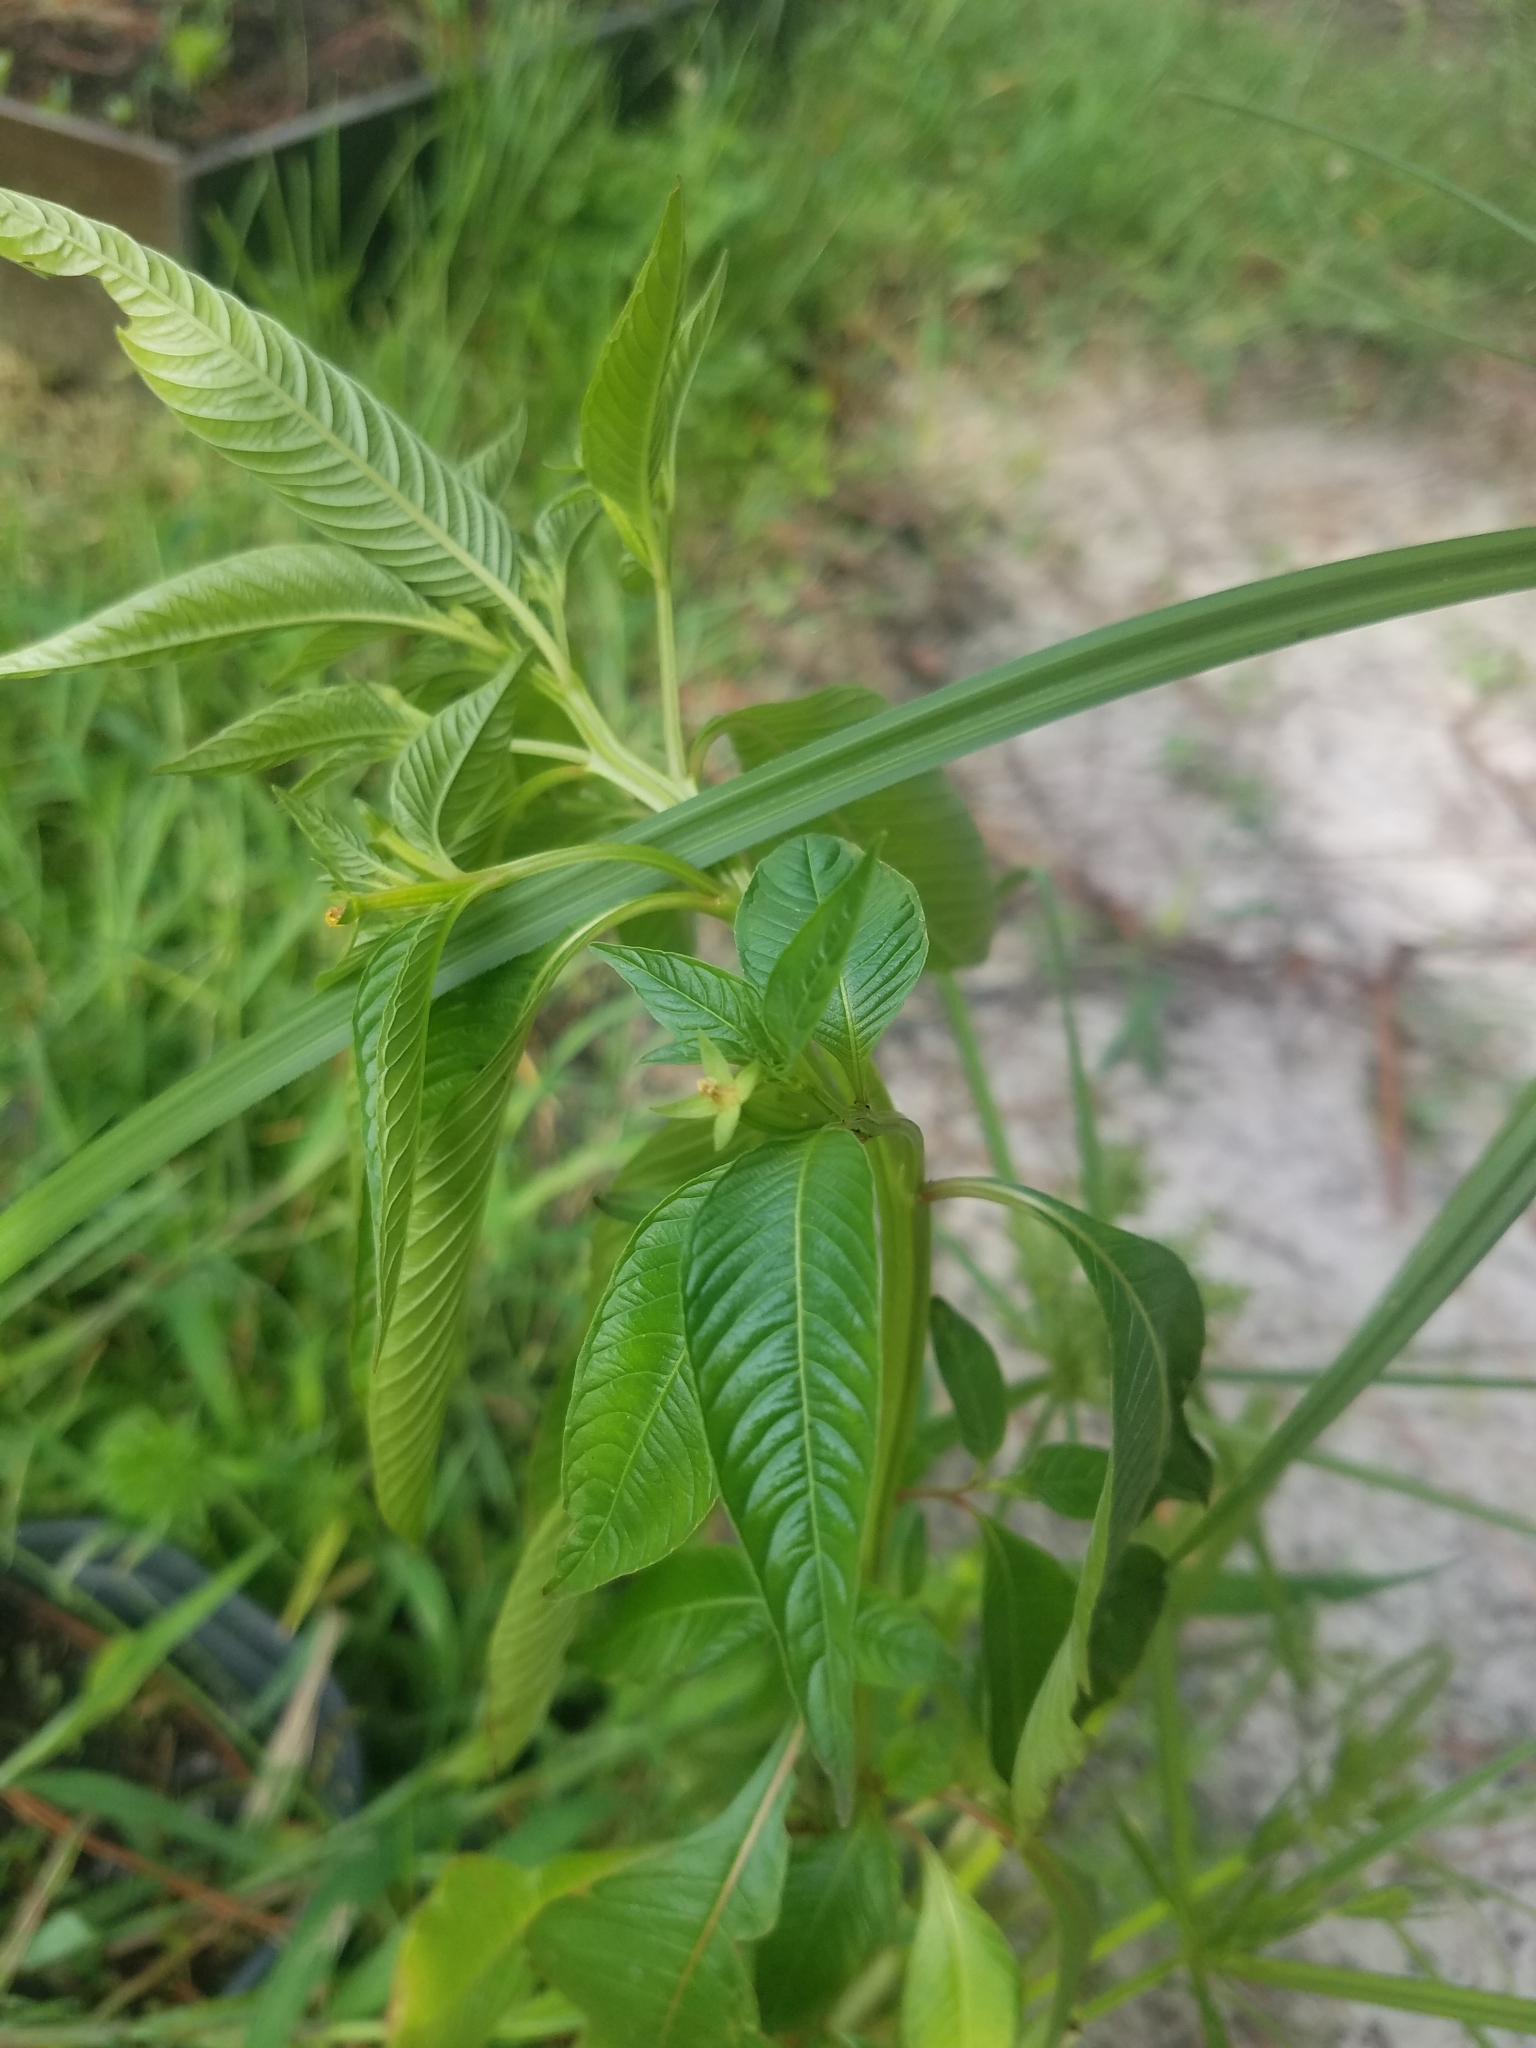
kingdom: Plantae
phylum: Tracheophyta
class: Magnoliopsida
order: Myrtales
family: Onagraceae
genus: Ludwigia
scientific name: Ludwigia decurrens
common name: Winged water-primrose
